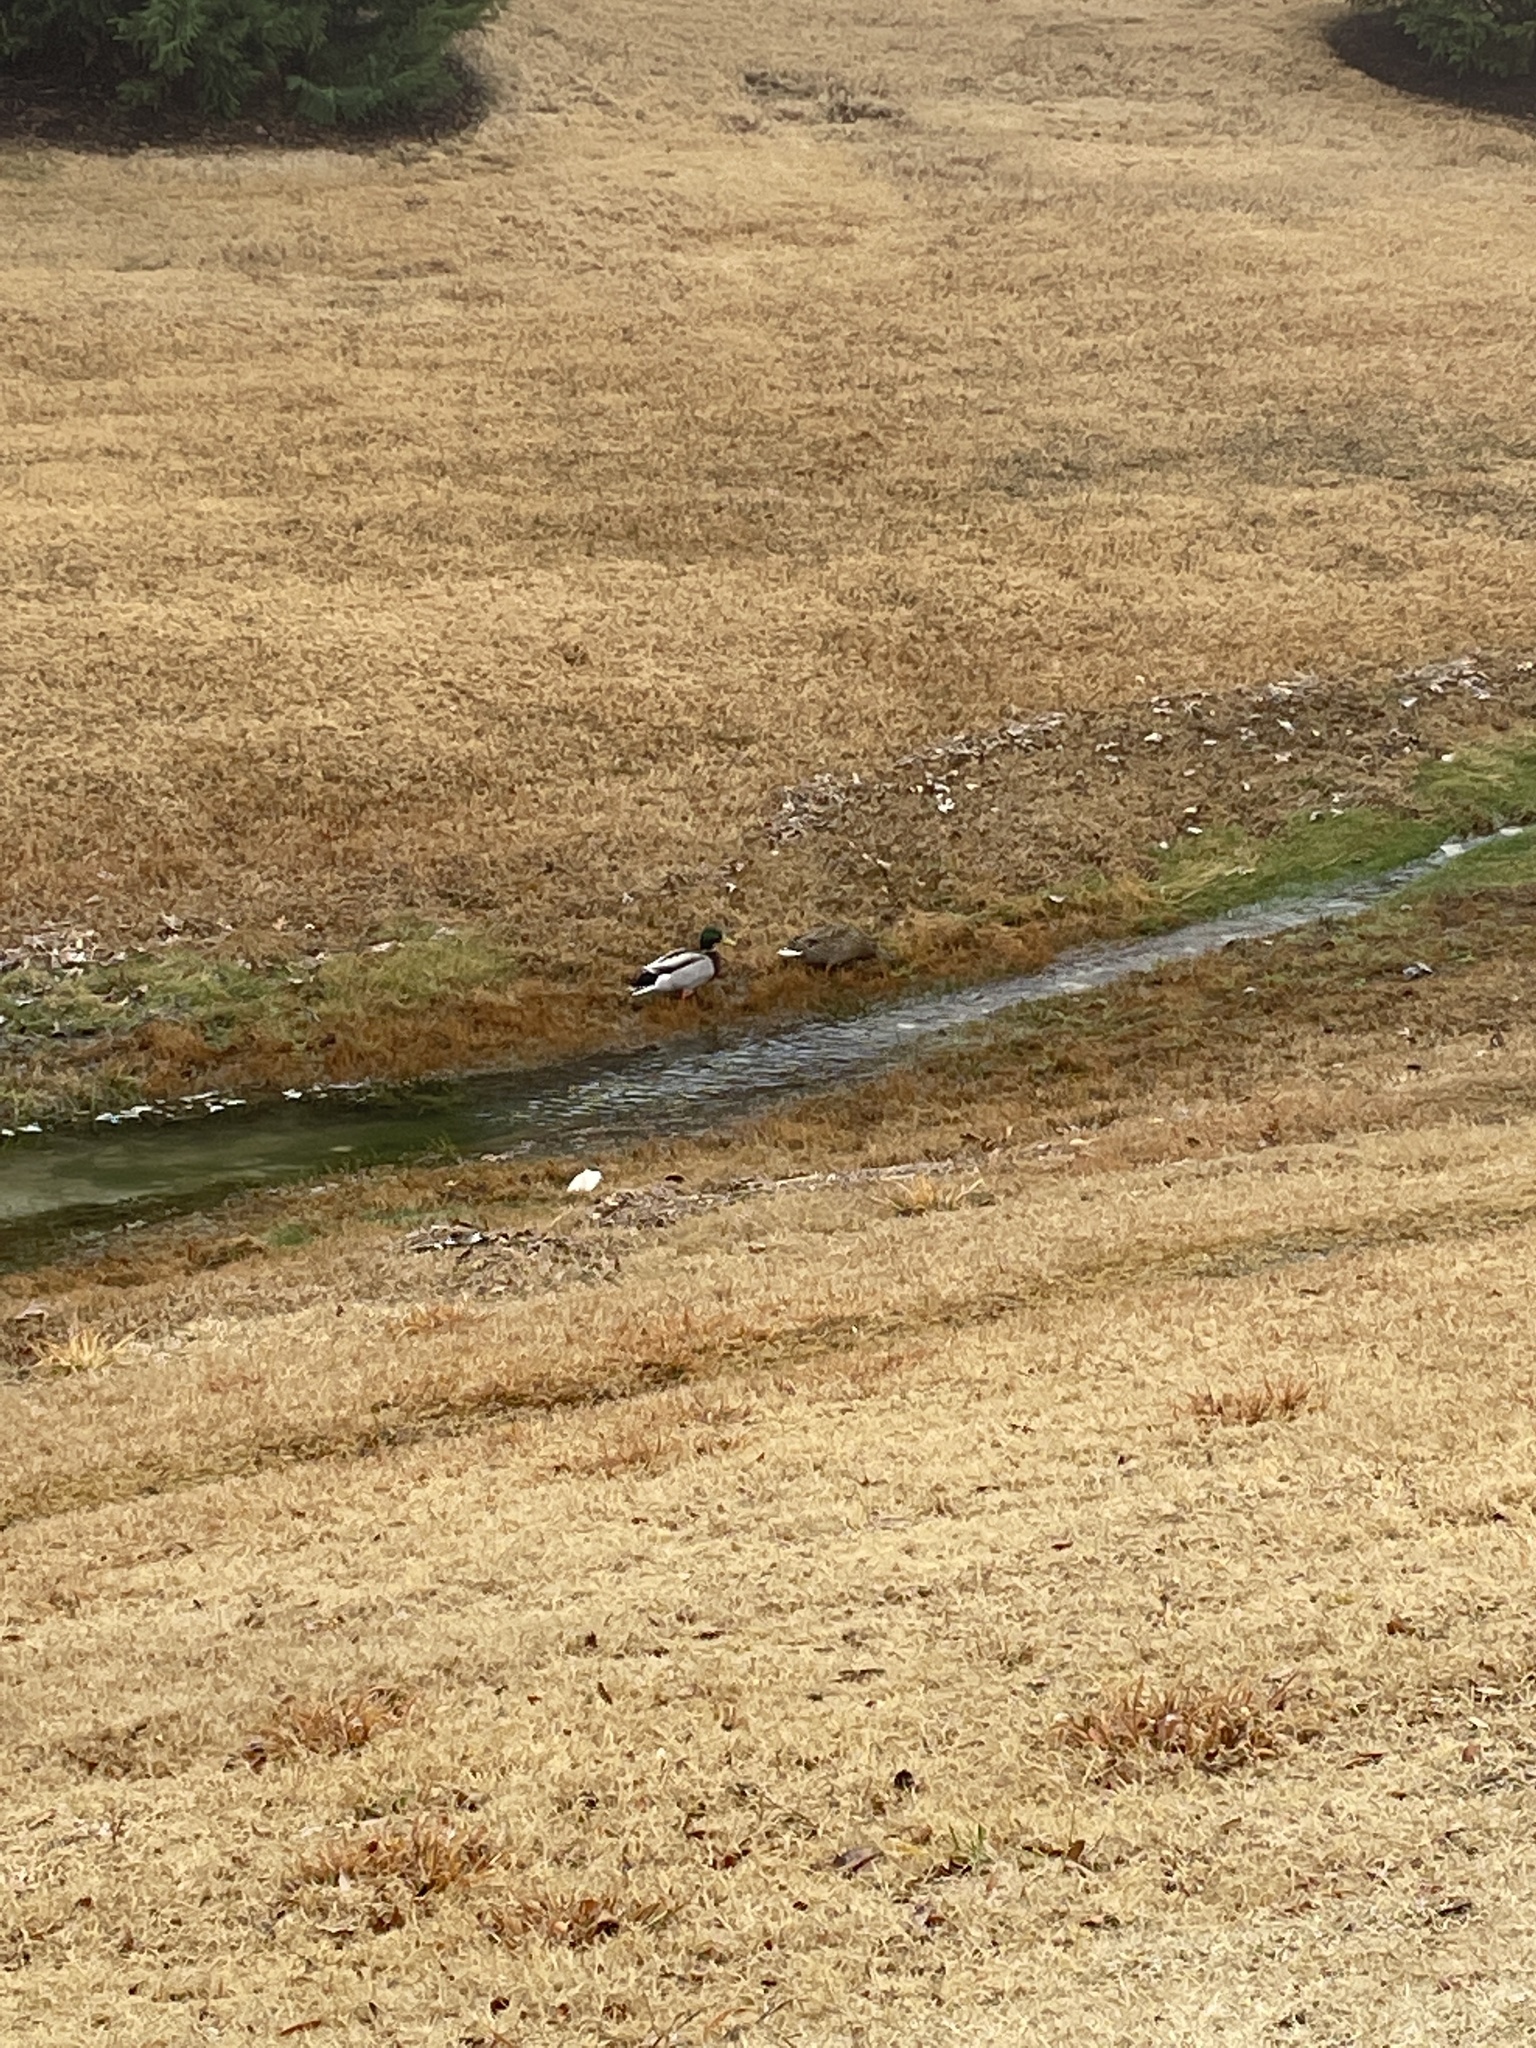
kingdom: Animalia
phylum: Chordata
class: Aves
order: Anseriformes
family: Anatidae
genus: Anas
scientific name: Anas platyrhynchos
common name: Mallard
